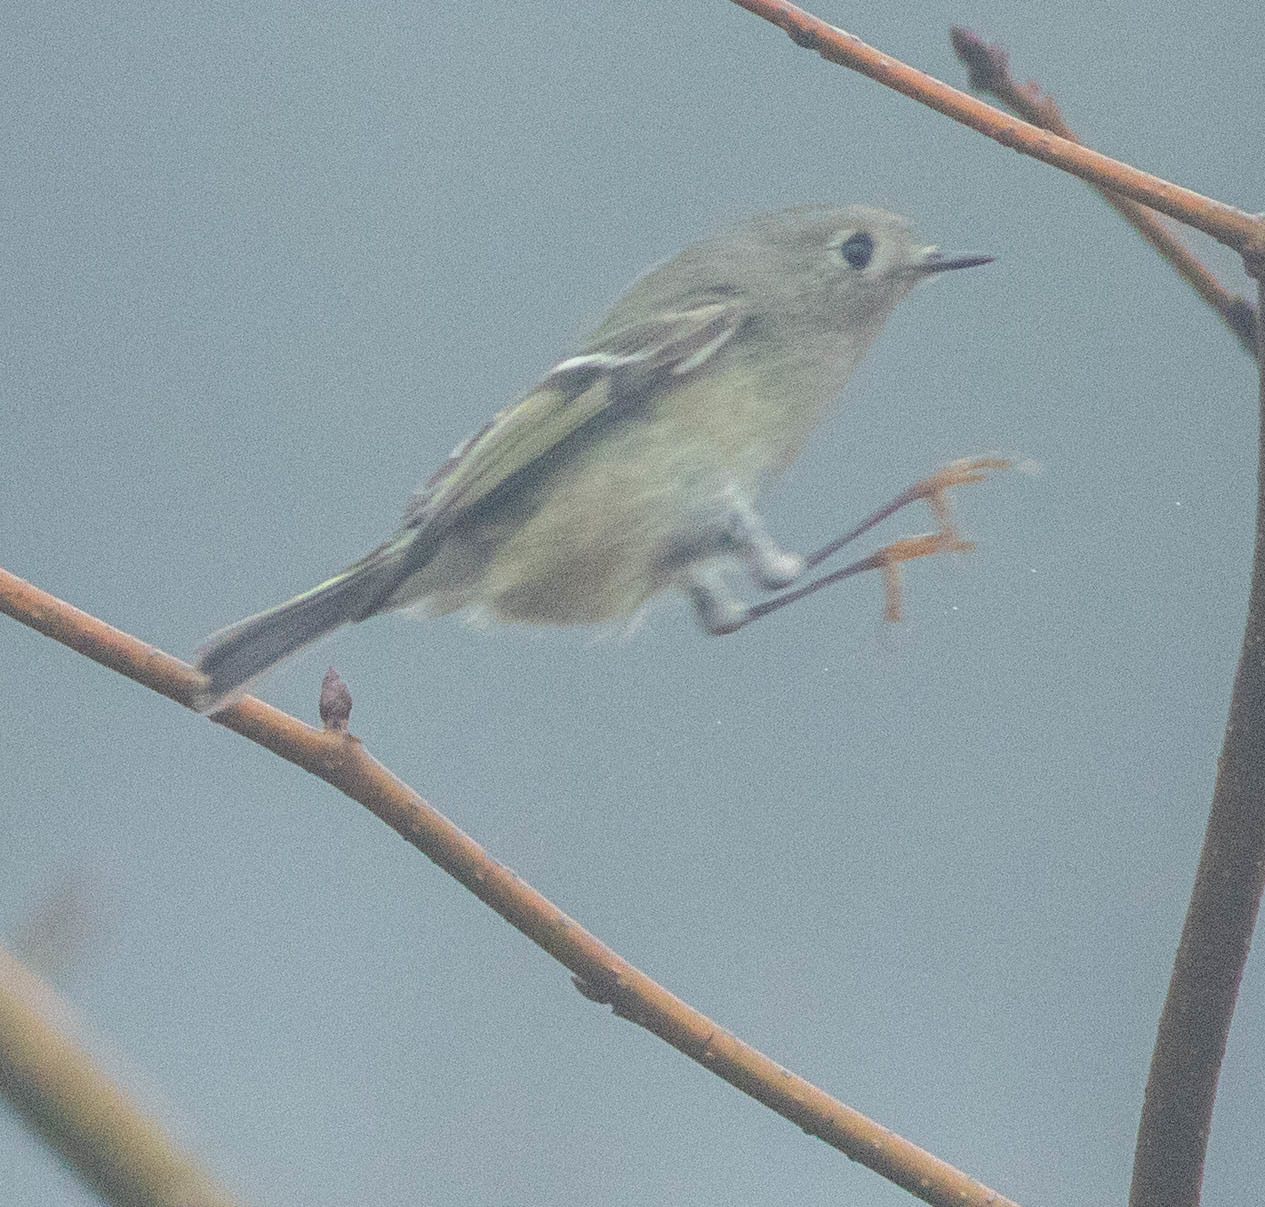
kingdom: Animalia
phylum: Chordata
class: Aves
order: Passeriformes
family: Regulidae
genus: Regulus
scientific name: Regulus calendula
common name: Ruby-crowned kinglet
